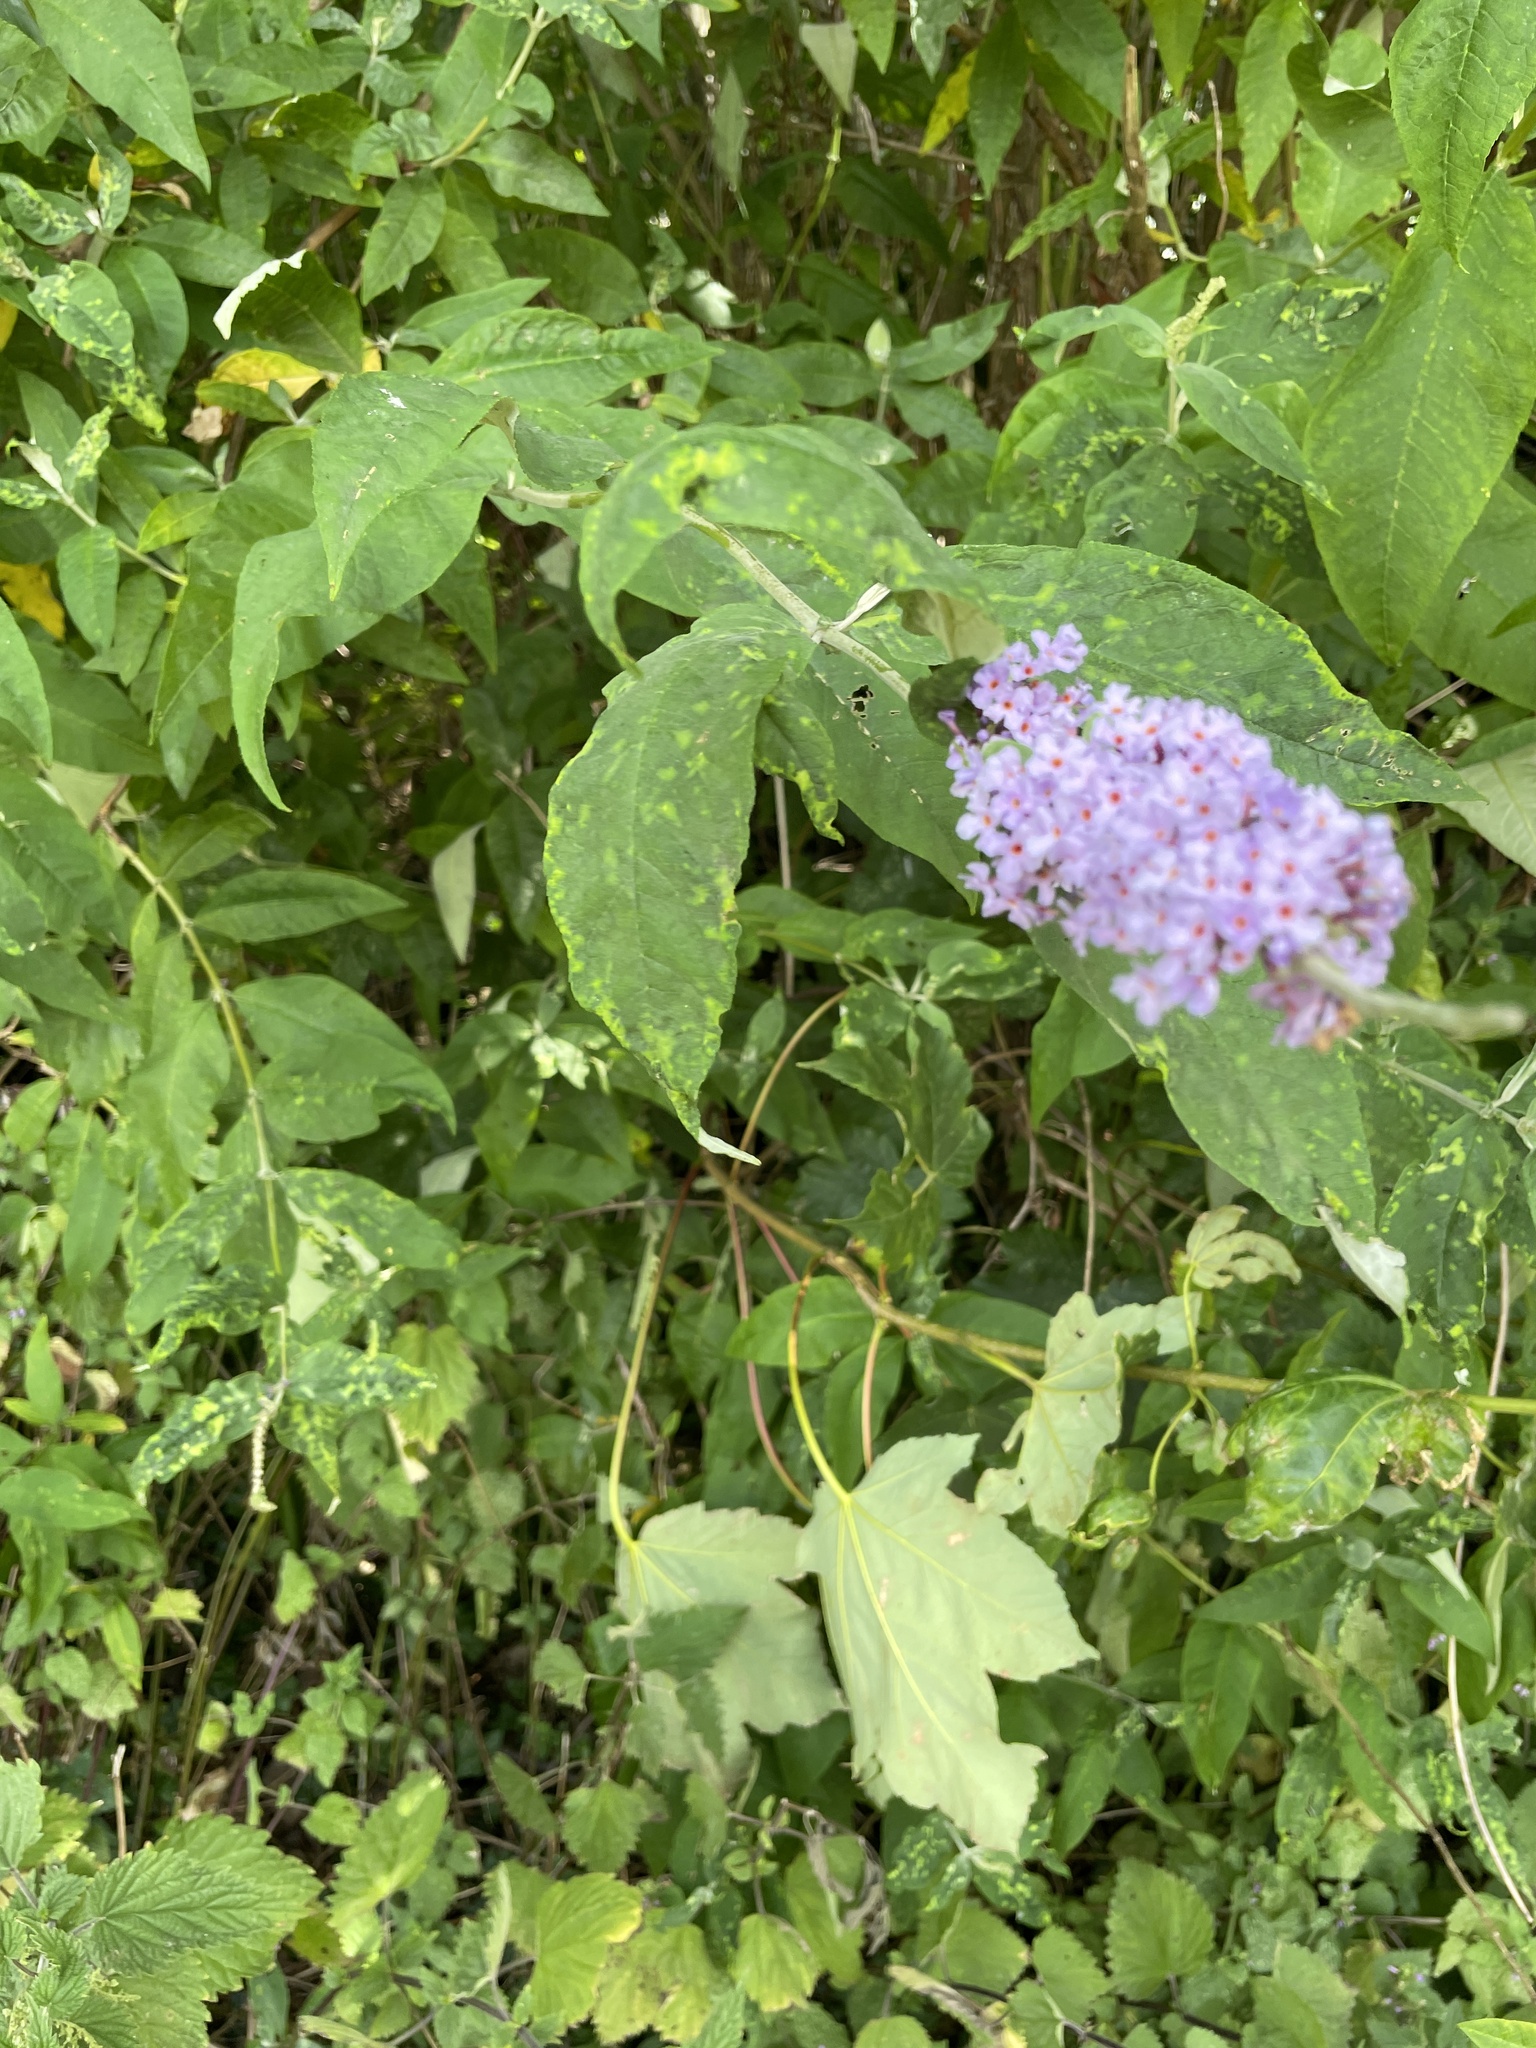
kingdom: Plantae
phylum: Tracheophyta
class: Magnoliopsida
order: Lamiales
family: Scrophulariaceae
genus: Buddleja
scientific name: Buddleja davidii
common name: Butterfly-bush
